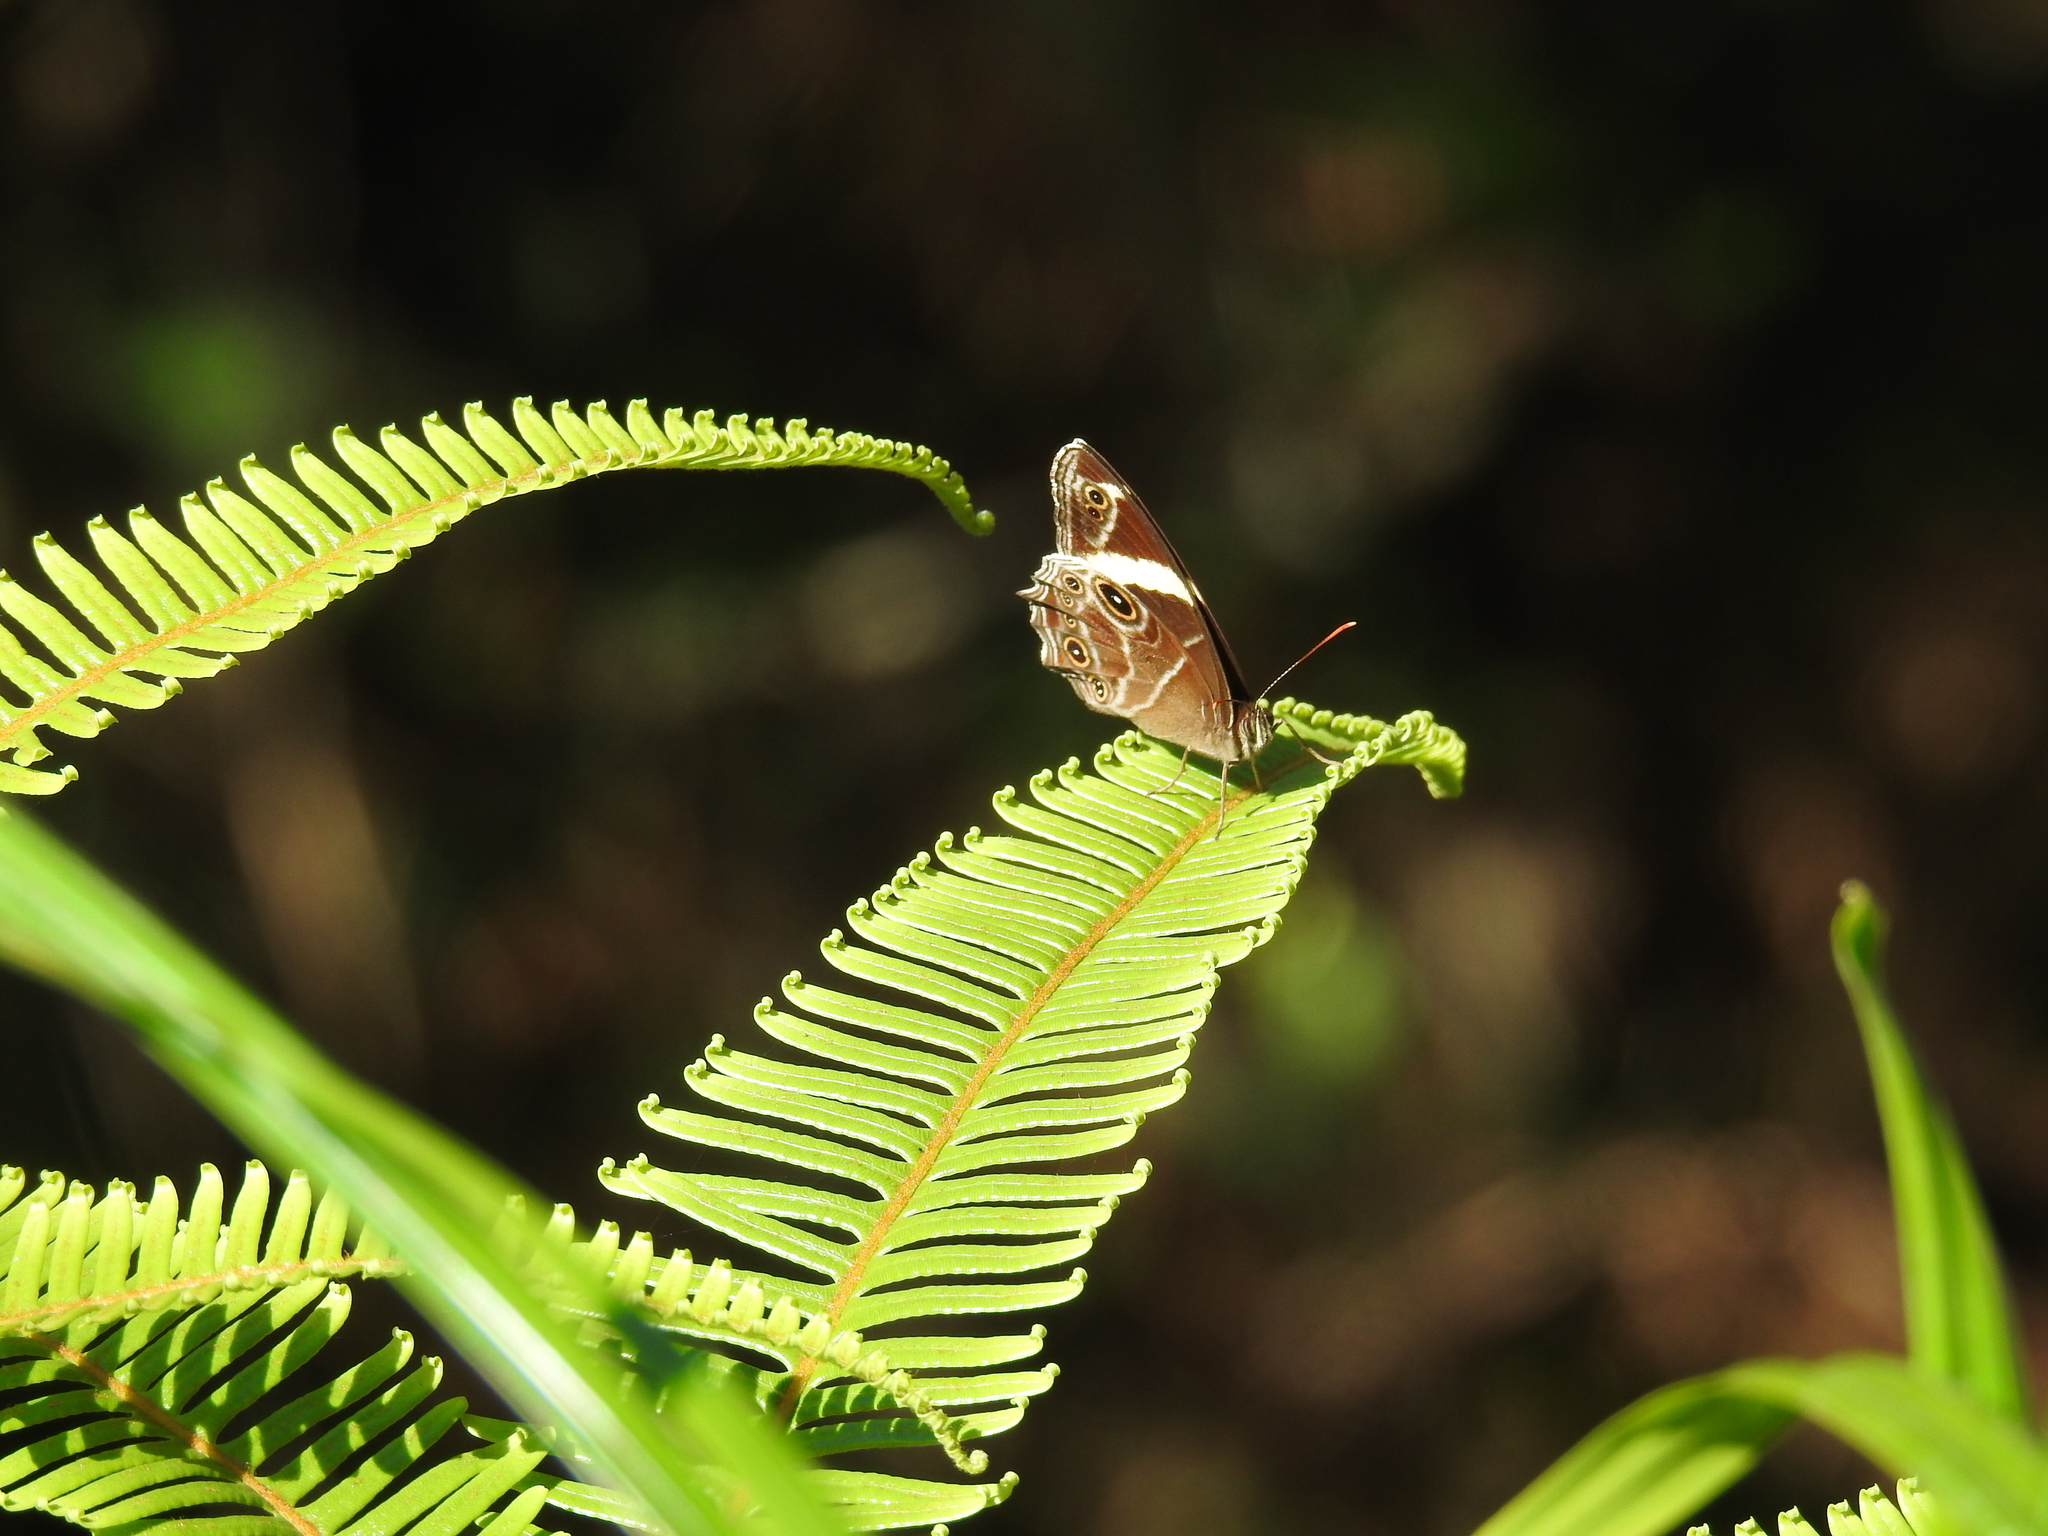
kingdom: Animalia
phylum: Arthropoda
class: Insecta
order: Lepidoptera
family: Nymphalidae
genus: Lethe
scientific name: Lethe confusa
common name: Banded treebrown
